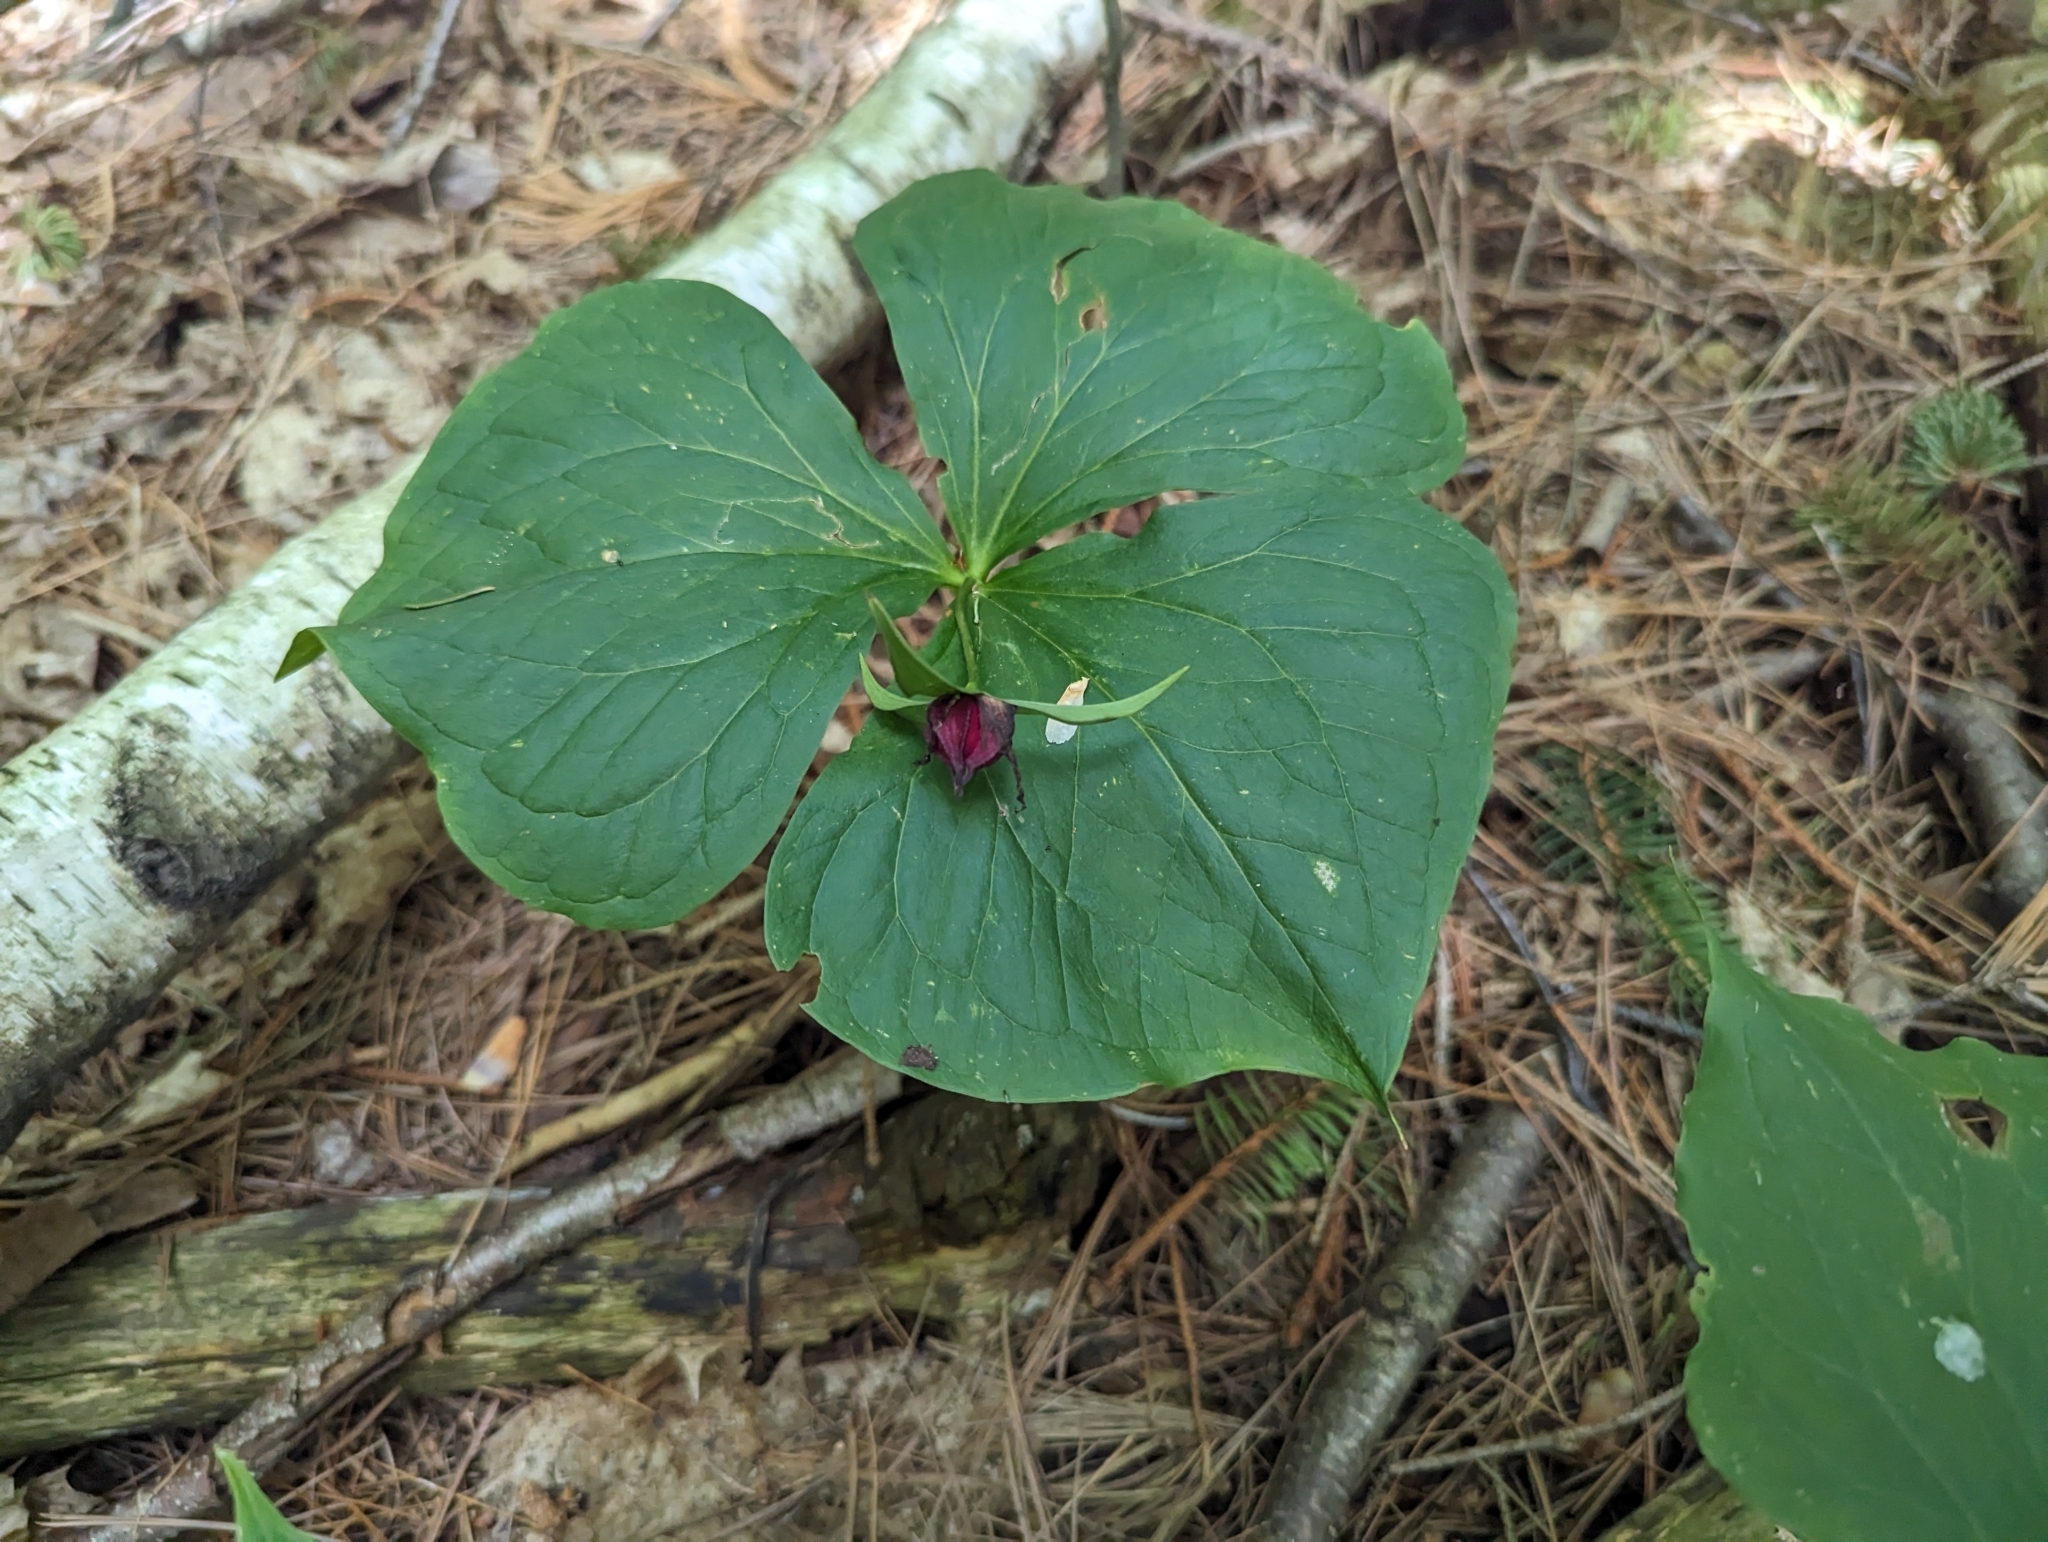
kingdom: Plantae
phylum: Tracheophyta
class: Liliopsida
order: Liliales
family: Melanthiaceae
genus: Trillium
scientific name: Trillium erectum
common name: Purple trillium
